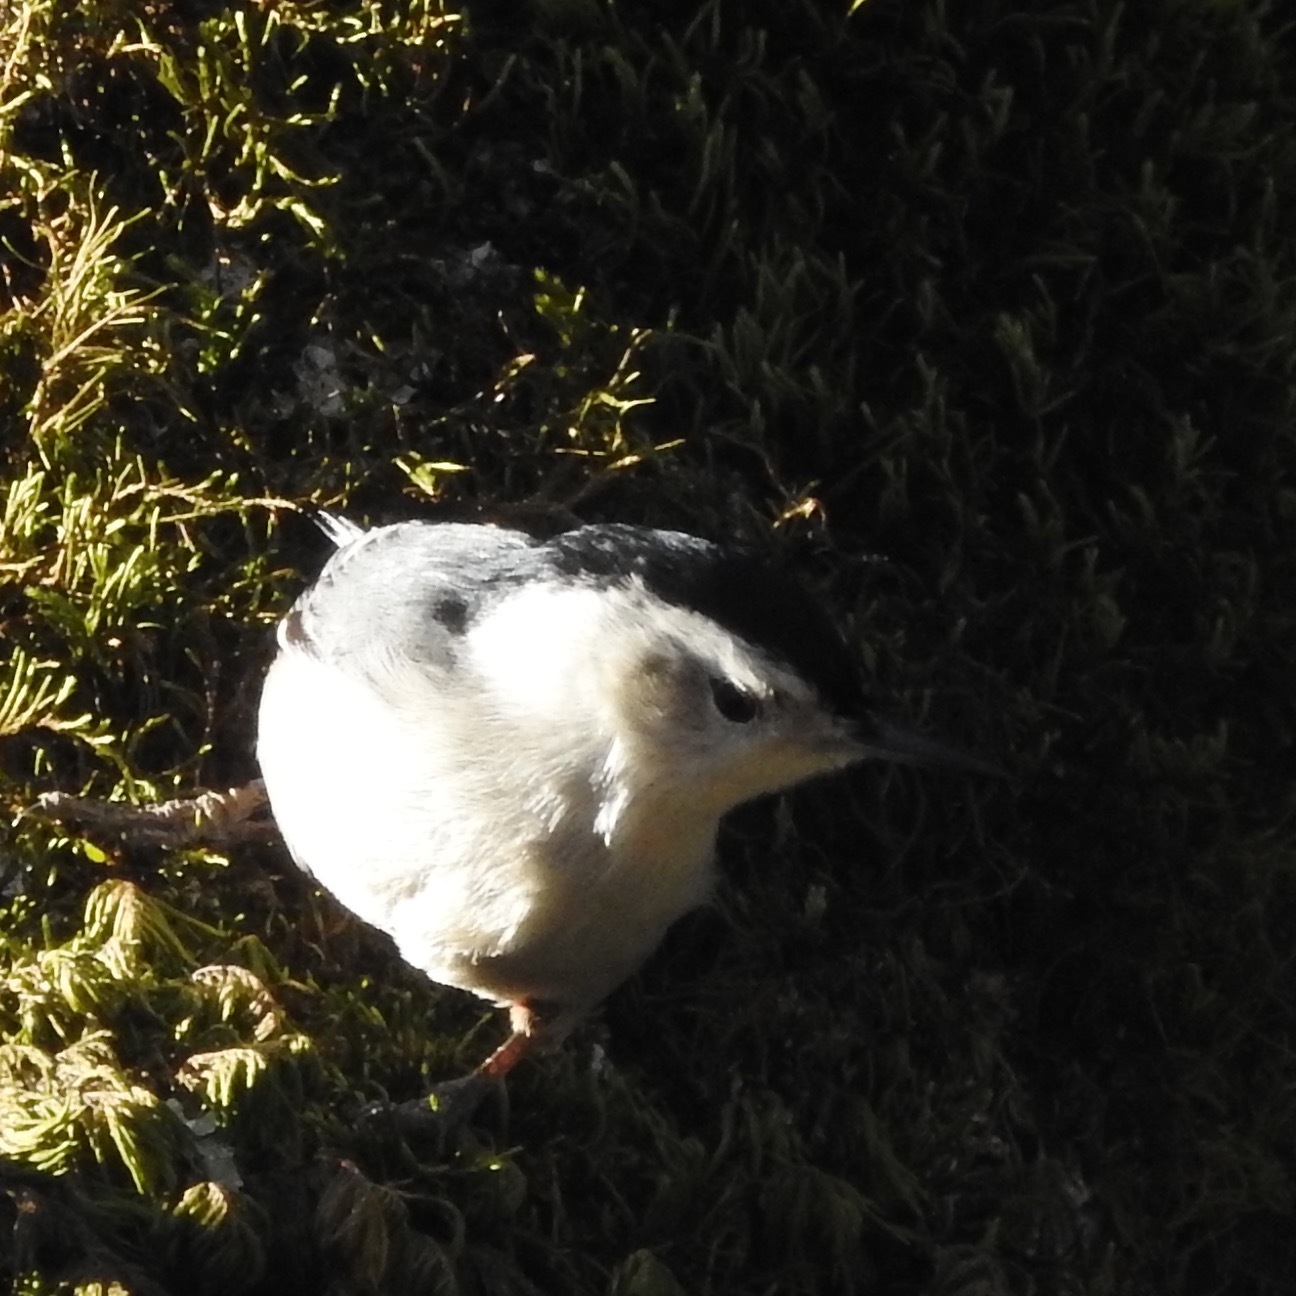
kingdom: Animalia
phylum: Chordata
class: Aves
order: Passeriformes
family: Sittidae
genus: Sitta
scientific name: Sitta carolinensis
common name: White-breasted nuthatch
